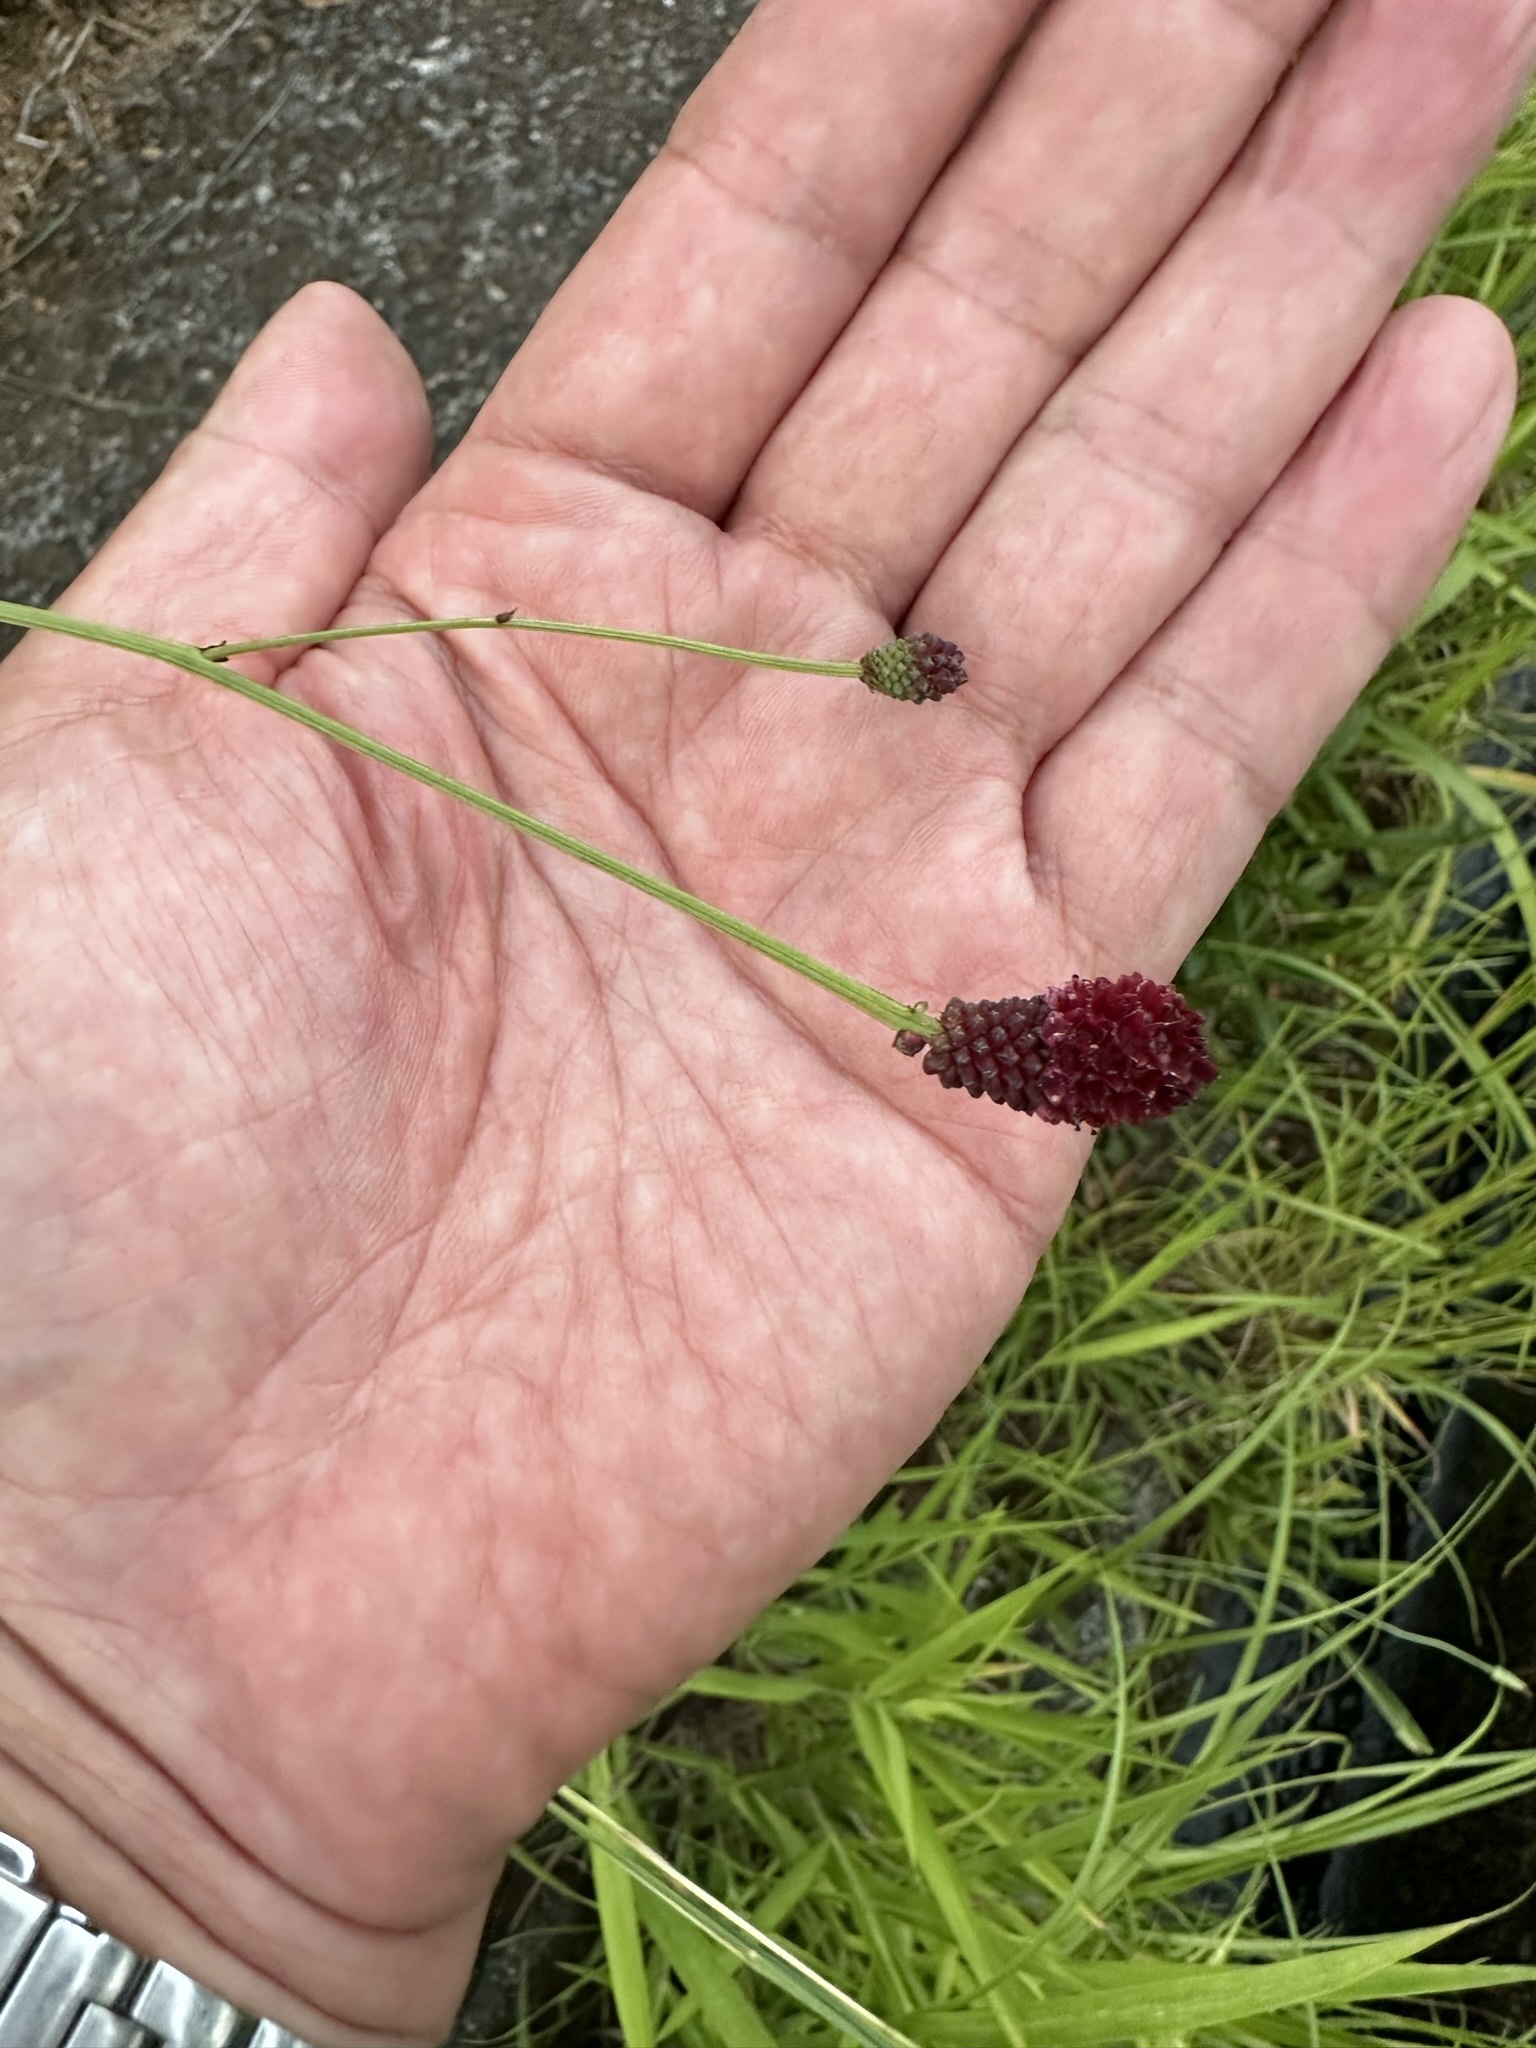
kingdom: Plantae
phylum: Tracheophyta
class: Magnoliopsida
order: Rosales
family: Rosaceae
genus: Sanguisorba
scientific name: Sanguisorba officinalis
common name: Great burnet
